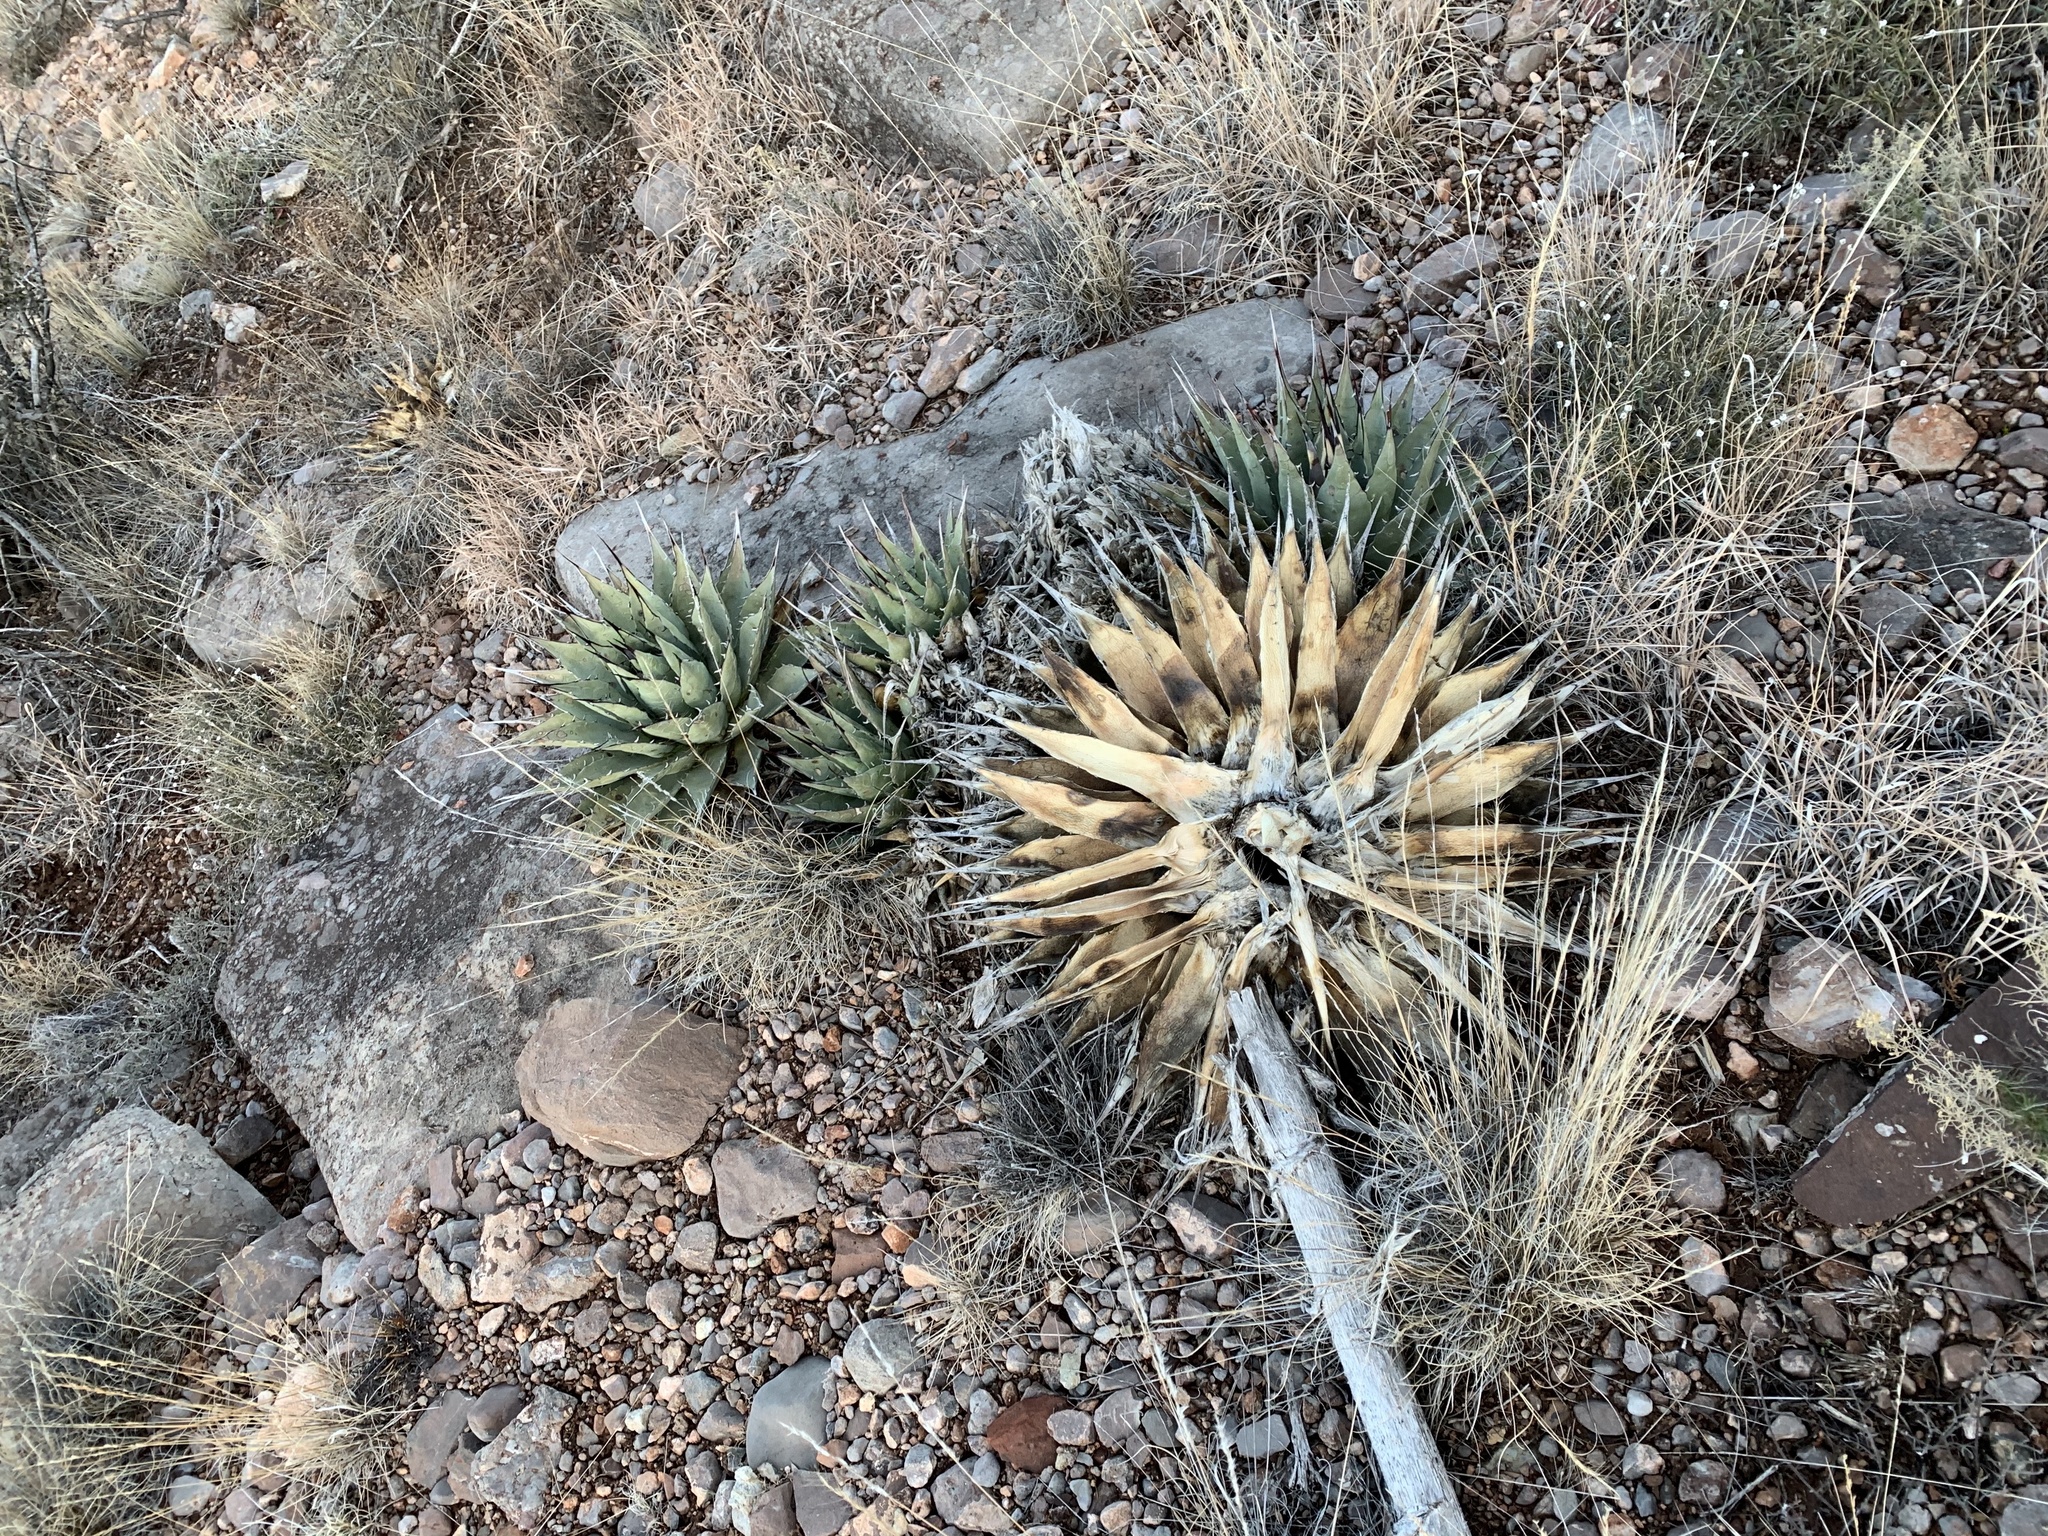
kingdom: Plantae
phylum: Tracheophyta
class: Liliopsida
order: Asparagales
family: Asparagaceae
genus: Agave
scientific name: Agave parryi
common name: Parry's agave
